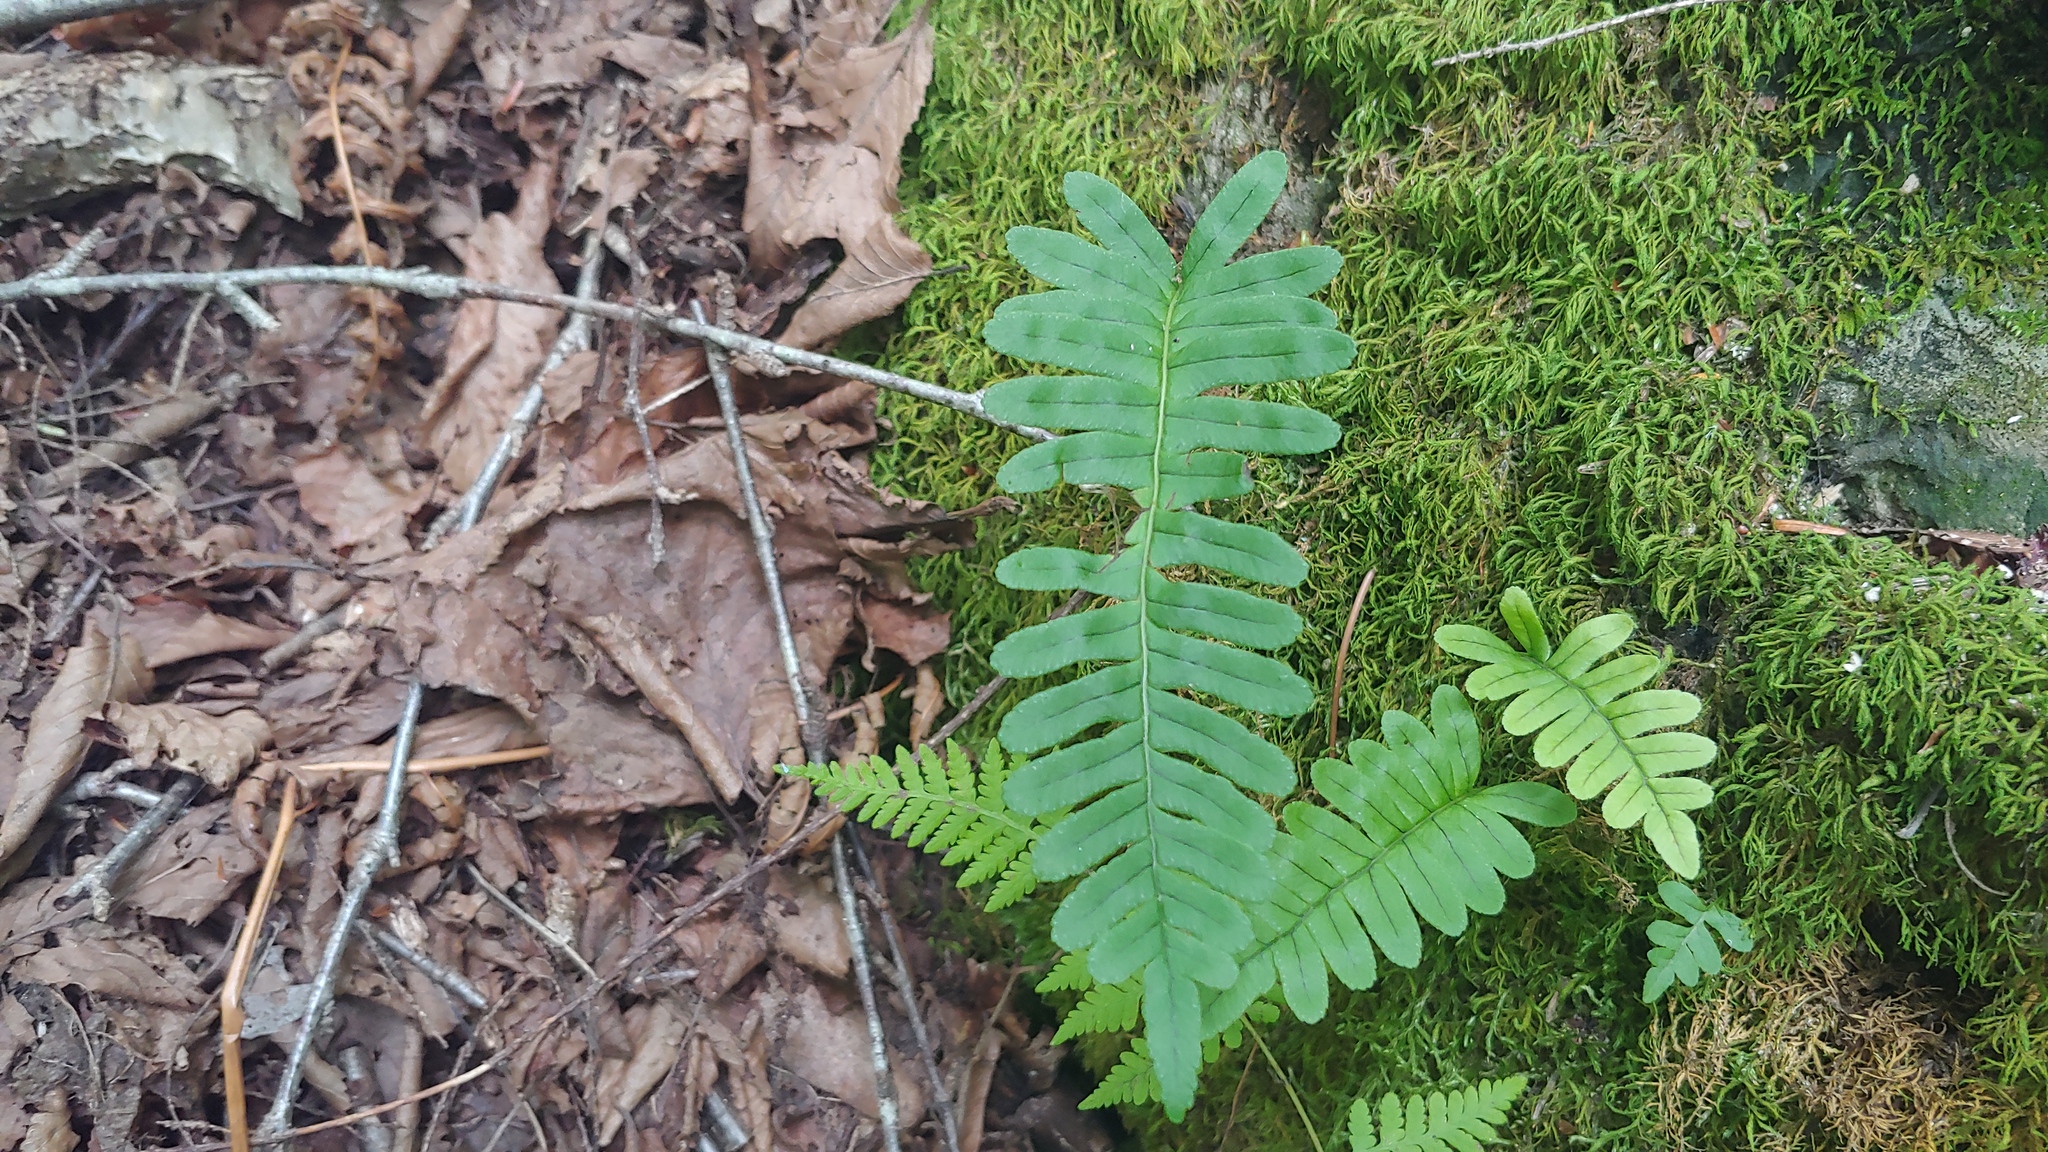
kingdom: Plantae
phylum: Tracheophyta
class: Polypodiopsida
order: Polypodiales
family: Polypodiaceae
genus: Polypodium
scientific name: Polypodium virginianum
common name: American wall fern
